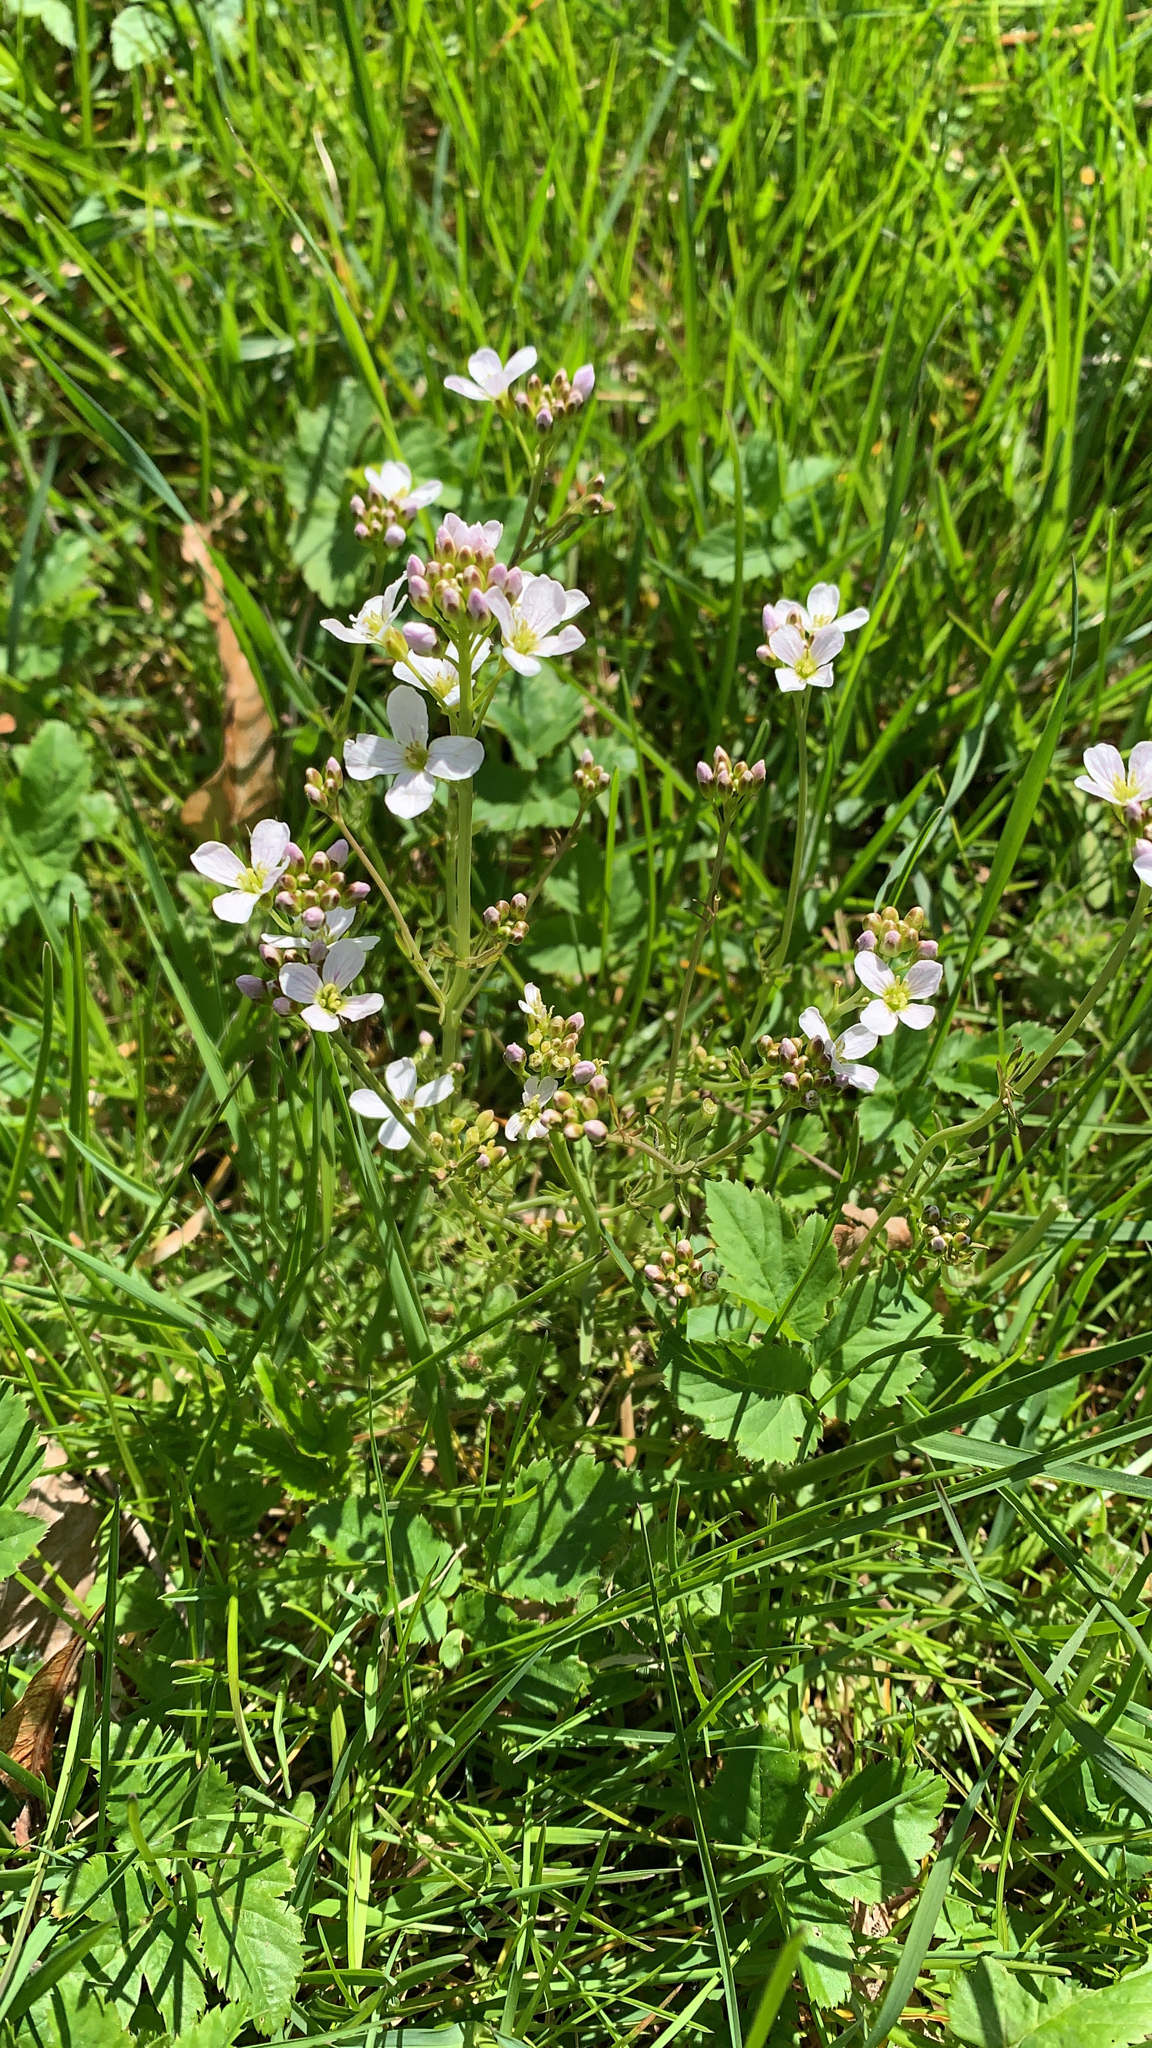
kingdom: Plantae
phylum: Tracheophyta
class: Magnoliopsida
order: Brassicales
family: Brassicaceae
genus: Cardamine
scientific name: Cardamine pratensis
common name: Cuckoo flower
